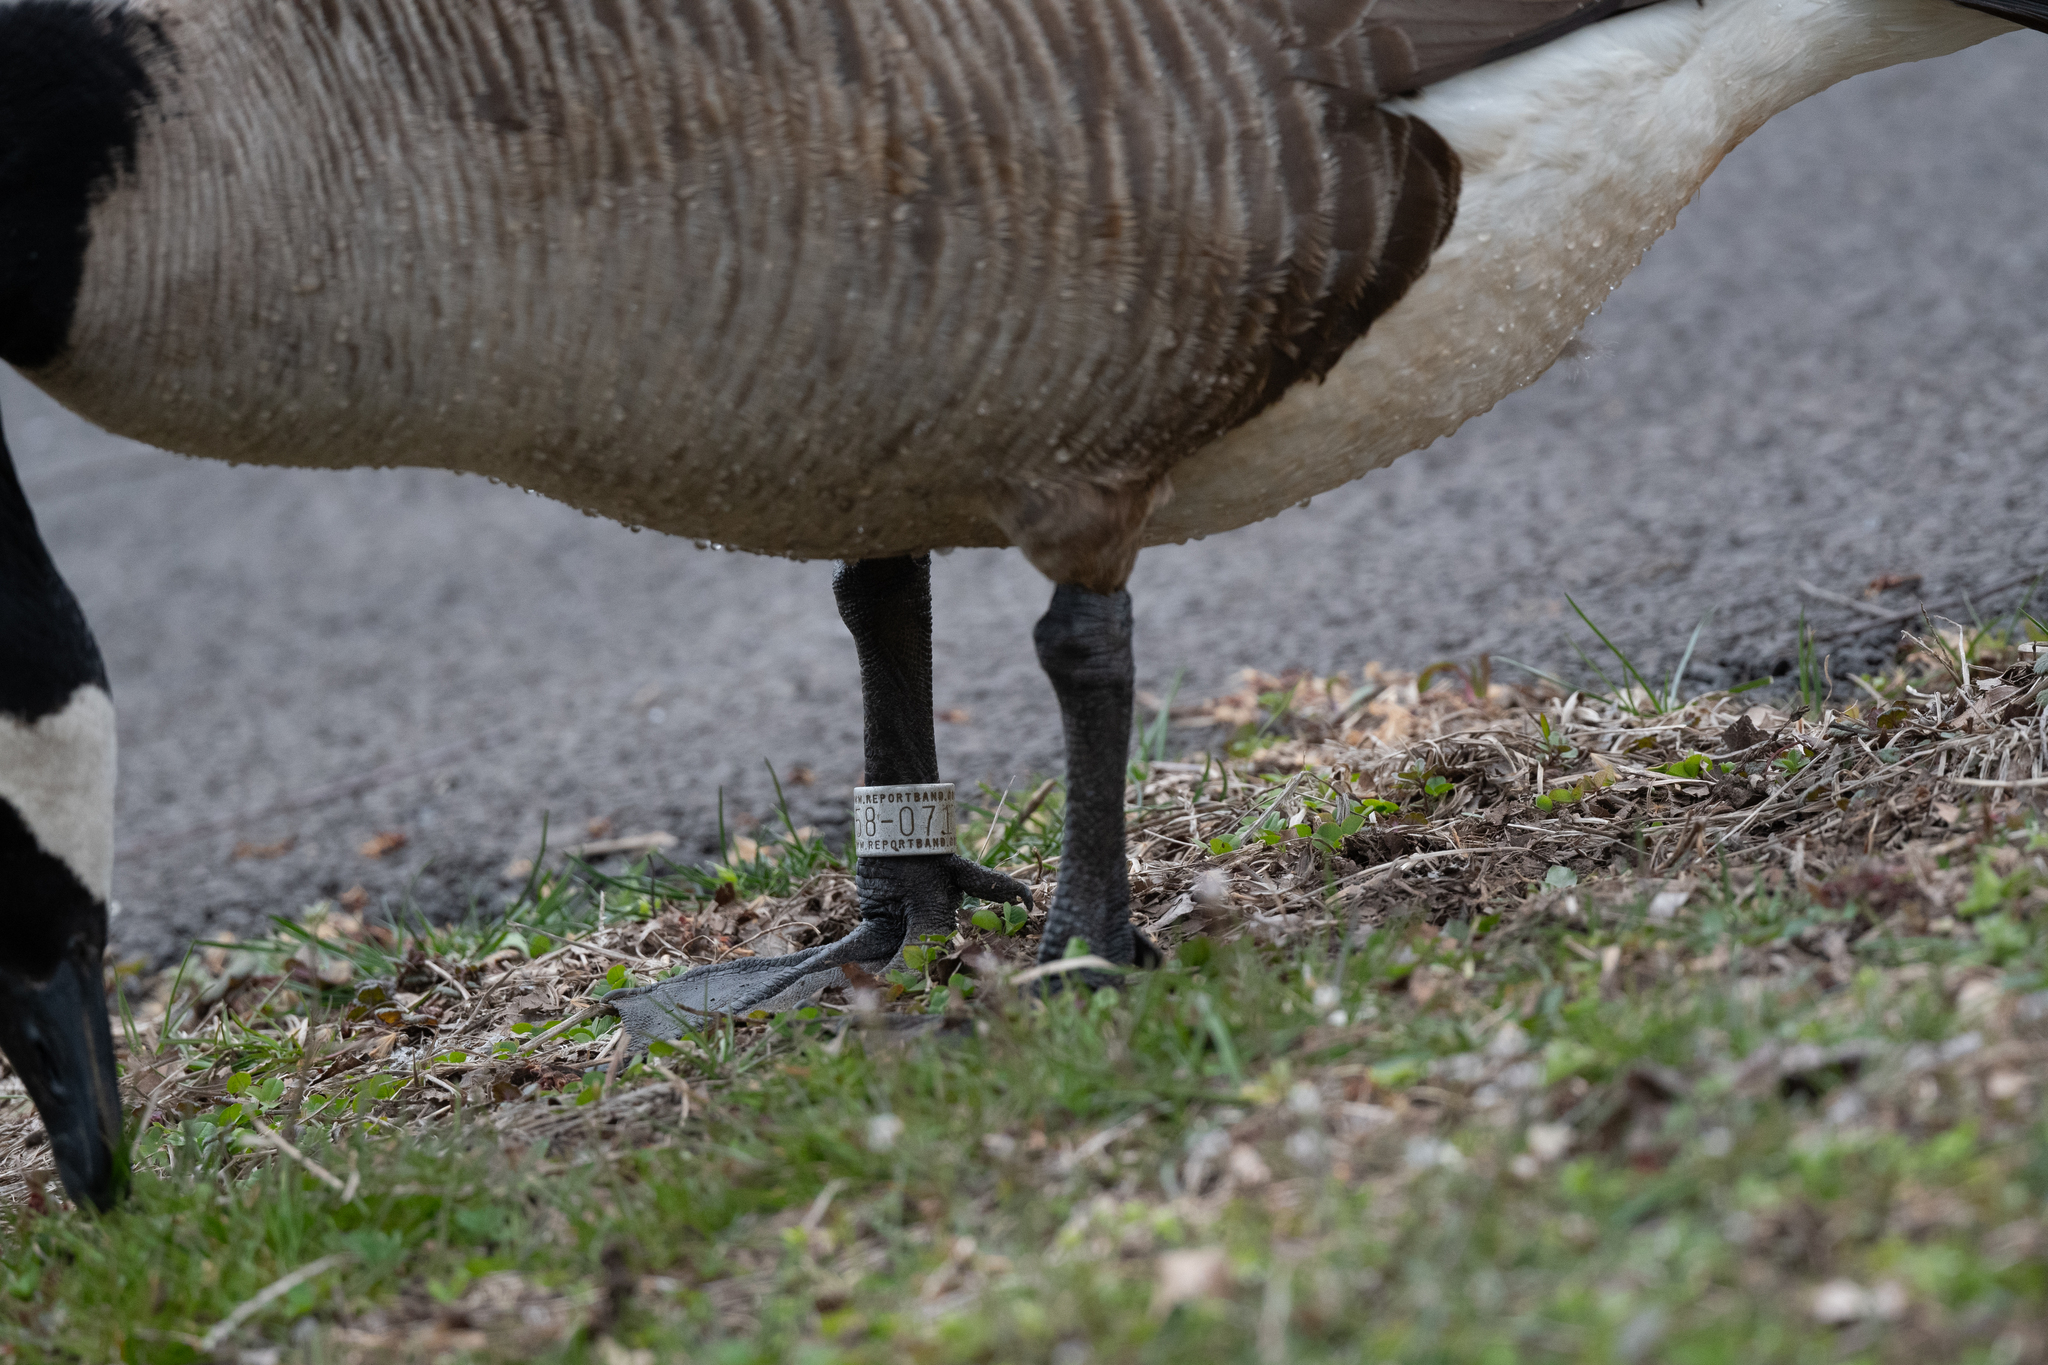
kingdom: Animalia
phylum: Chordata
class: Aves
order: Anseriformes
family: Anatidae
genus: Branta
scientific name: Branta canadensis
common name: Canada goose
